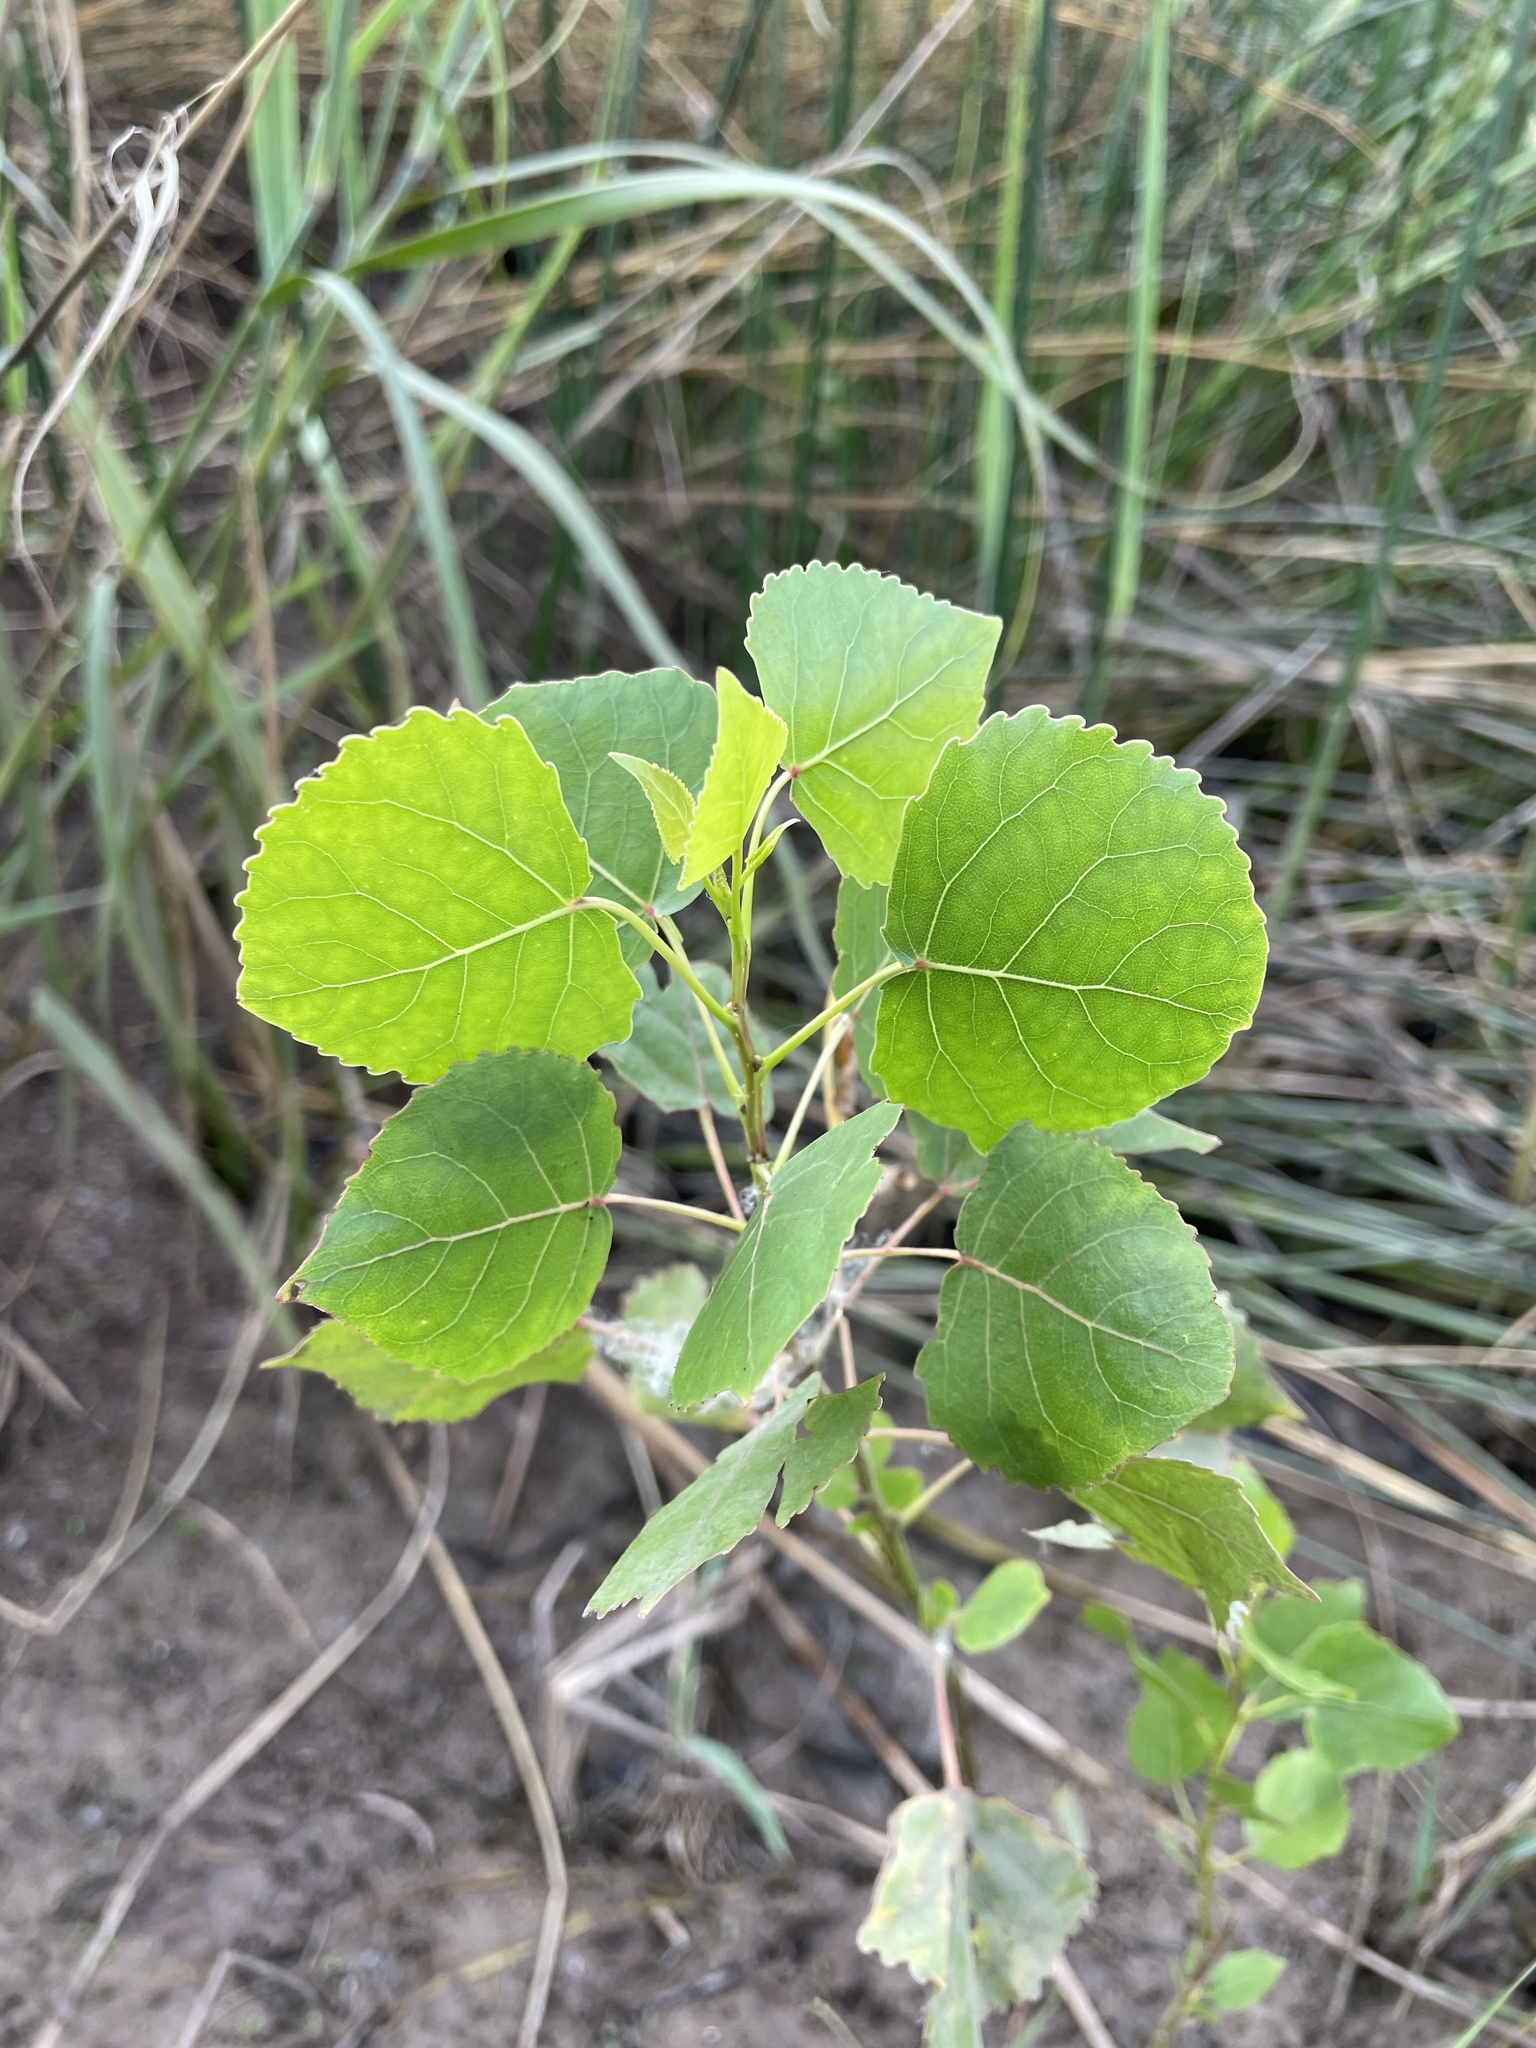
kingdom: Plantae
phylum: Tracheophyta
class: Magnoliopsida
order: Malpighiales
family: Salicaceae
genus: Populus
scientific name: Populus deltoides
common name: Eastern cottonwood
